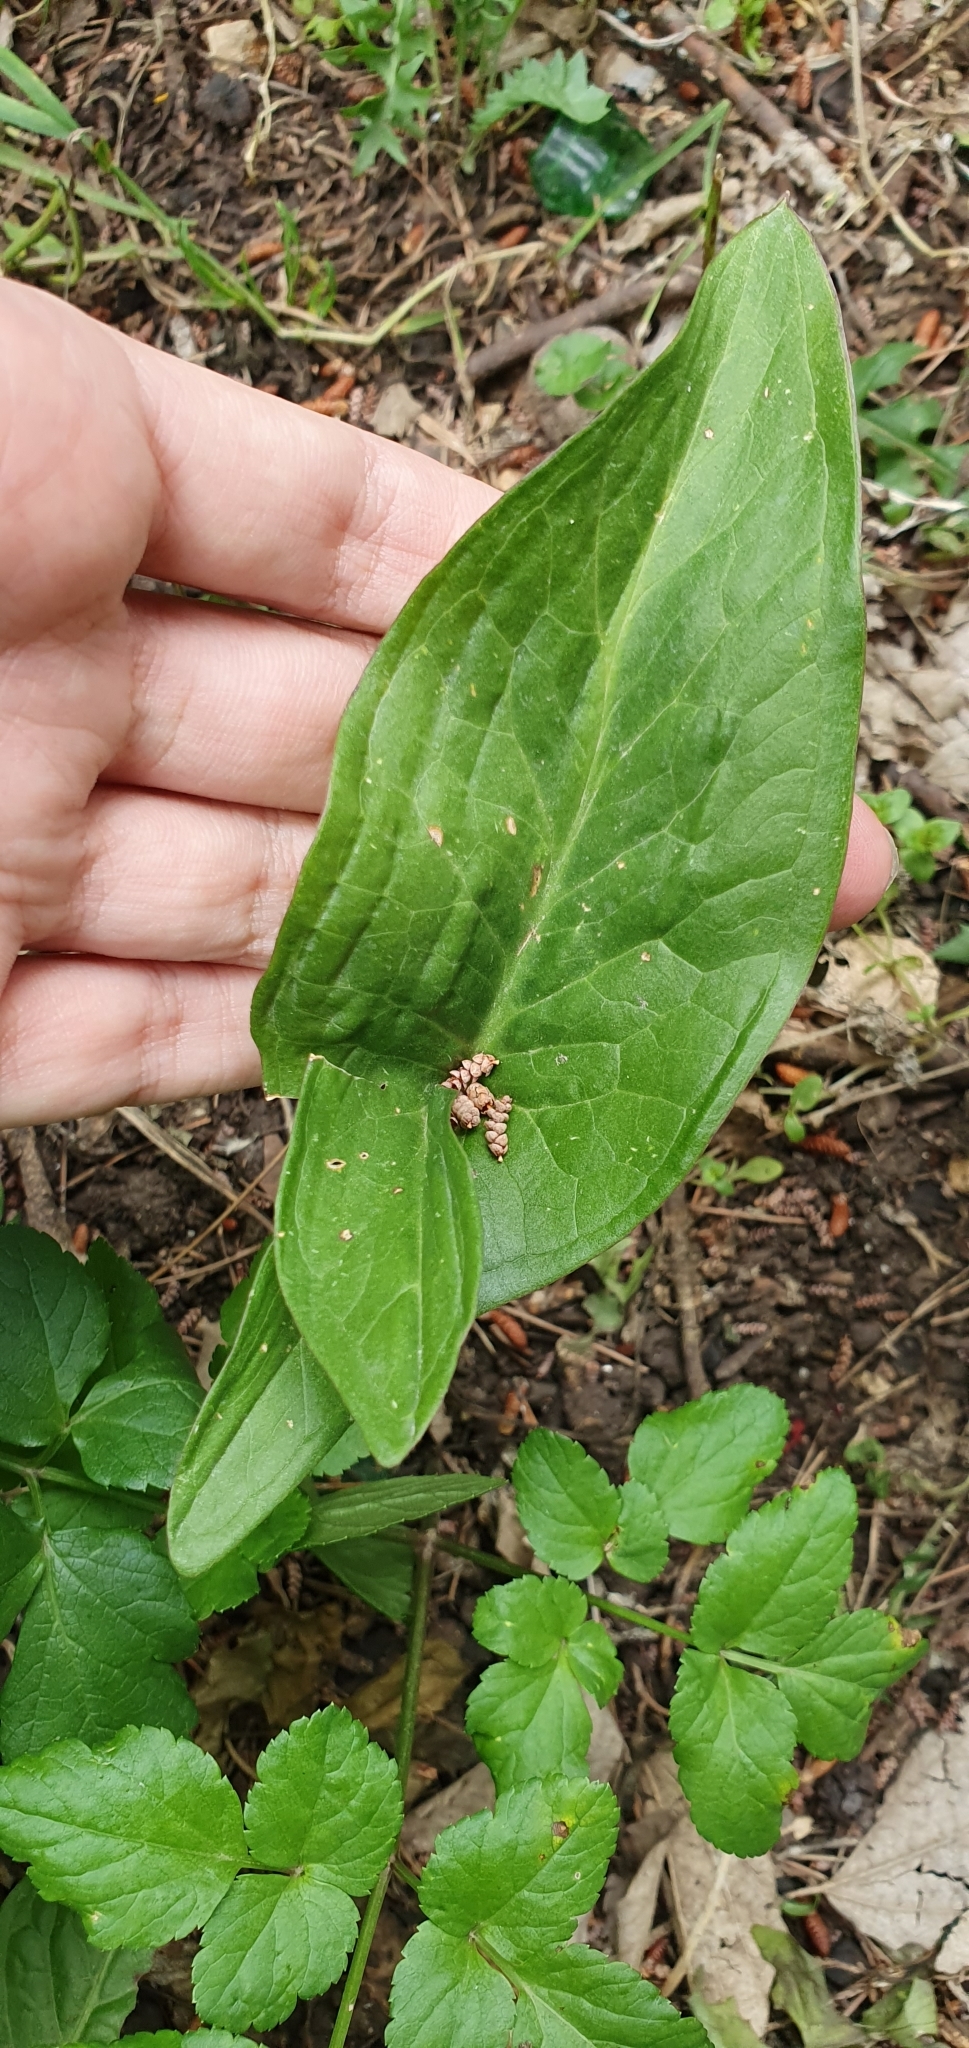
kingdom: Plantae
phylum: Tracheophyta
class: Liliopsida
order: Alismatales
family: Araceae
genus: Arum
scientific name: Arum italicum
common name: Italian lords-and-ladies
